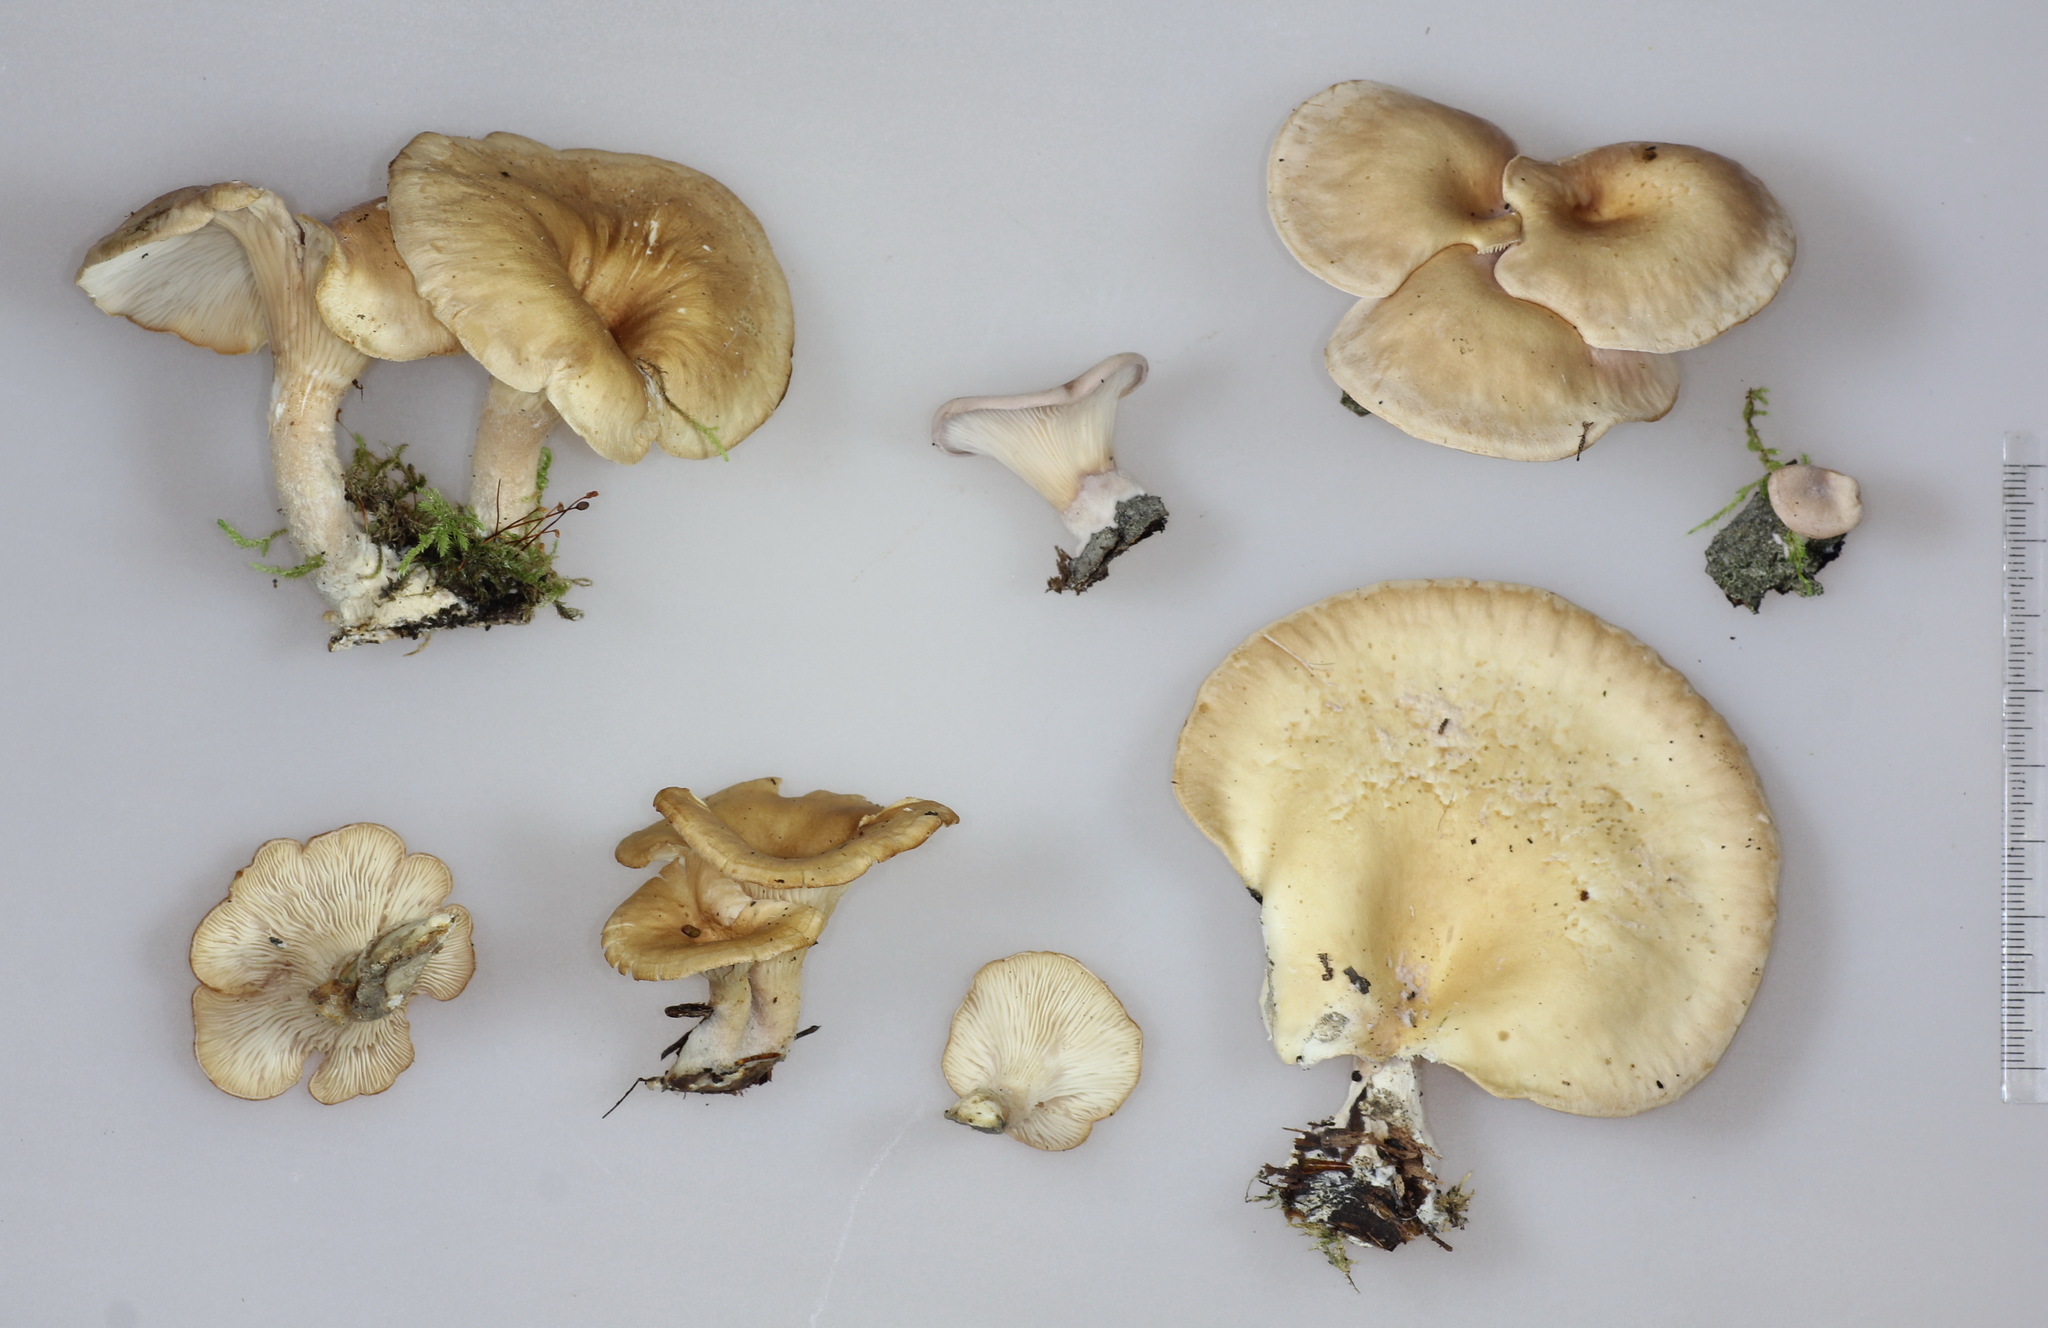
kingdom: Fungi
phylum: Basidiomycota
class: Agaricomycetes
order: Agaricales
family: Pleurotaceae
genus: Hohenbuehelia
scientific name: Hohenbuehelia petaloides
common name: Shoehorn oyster
